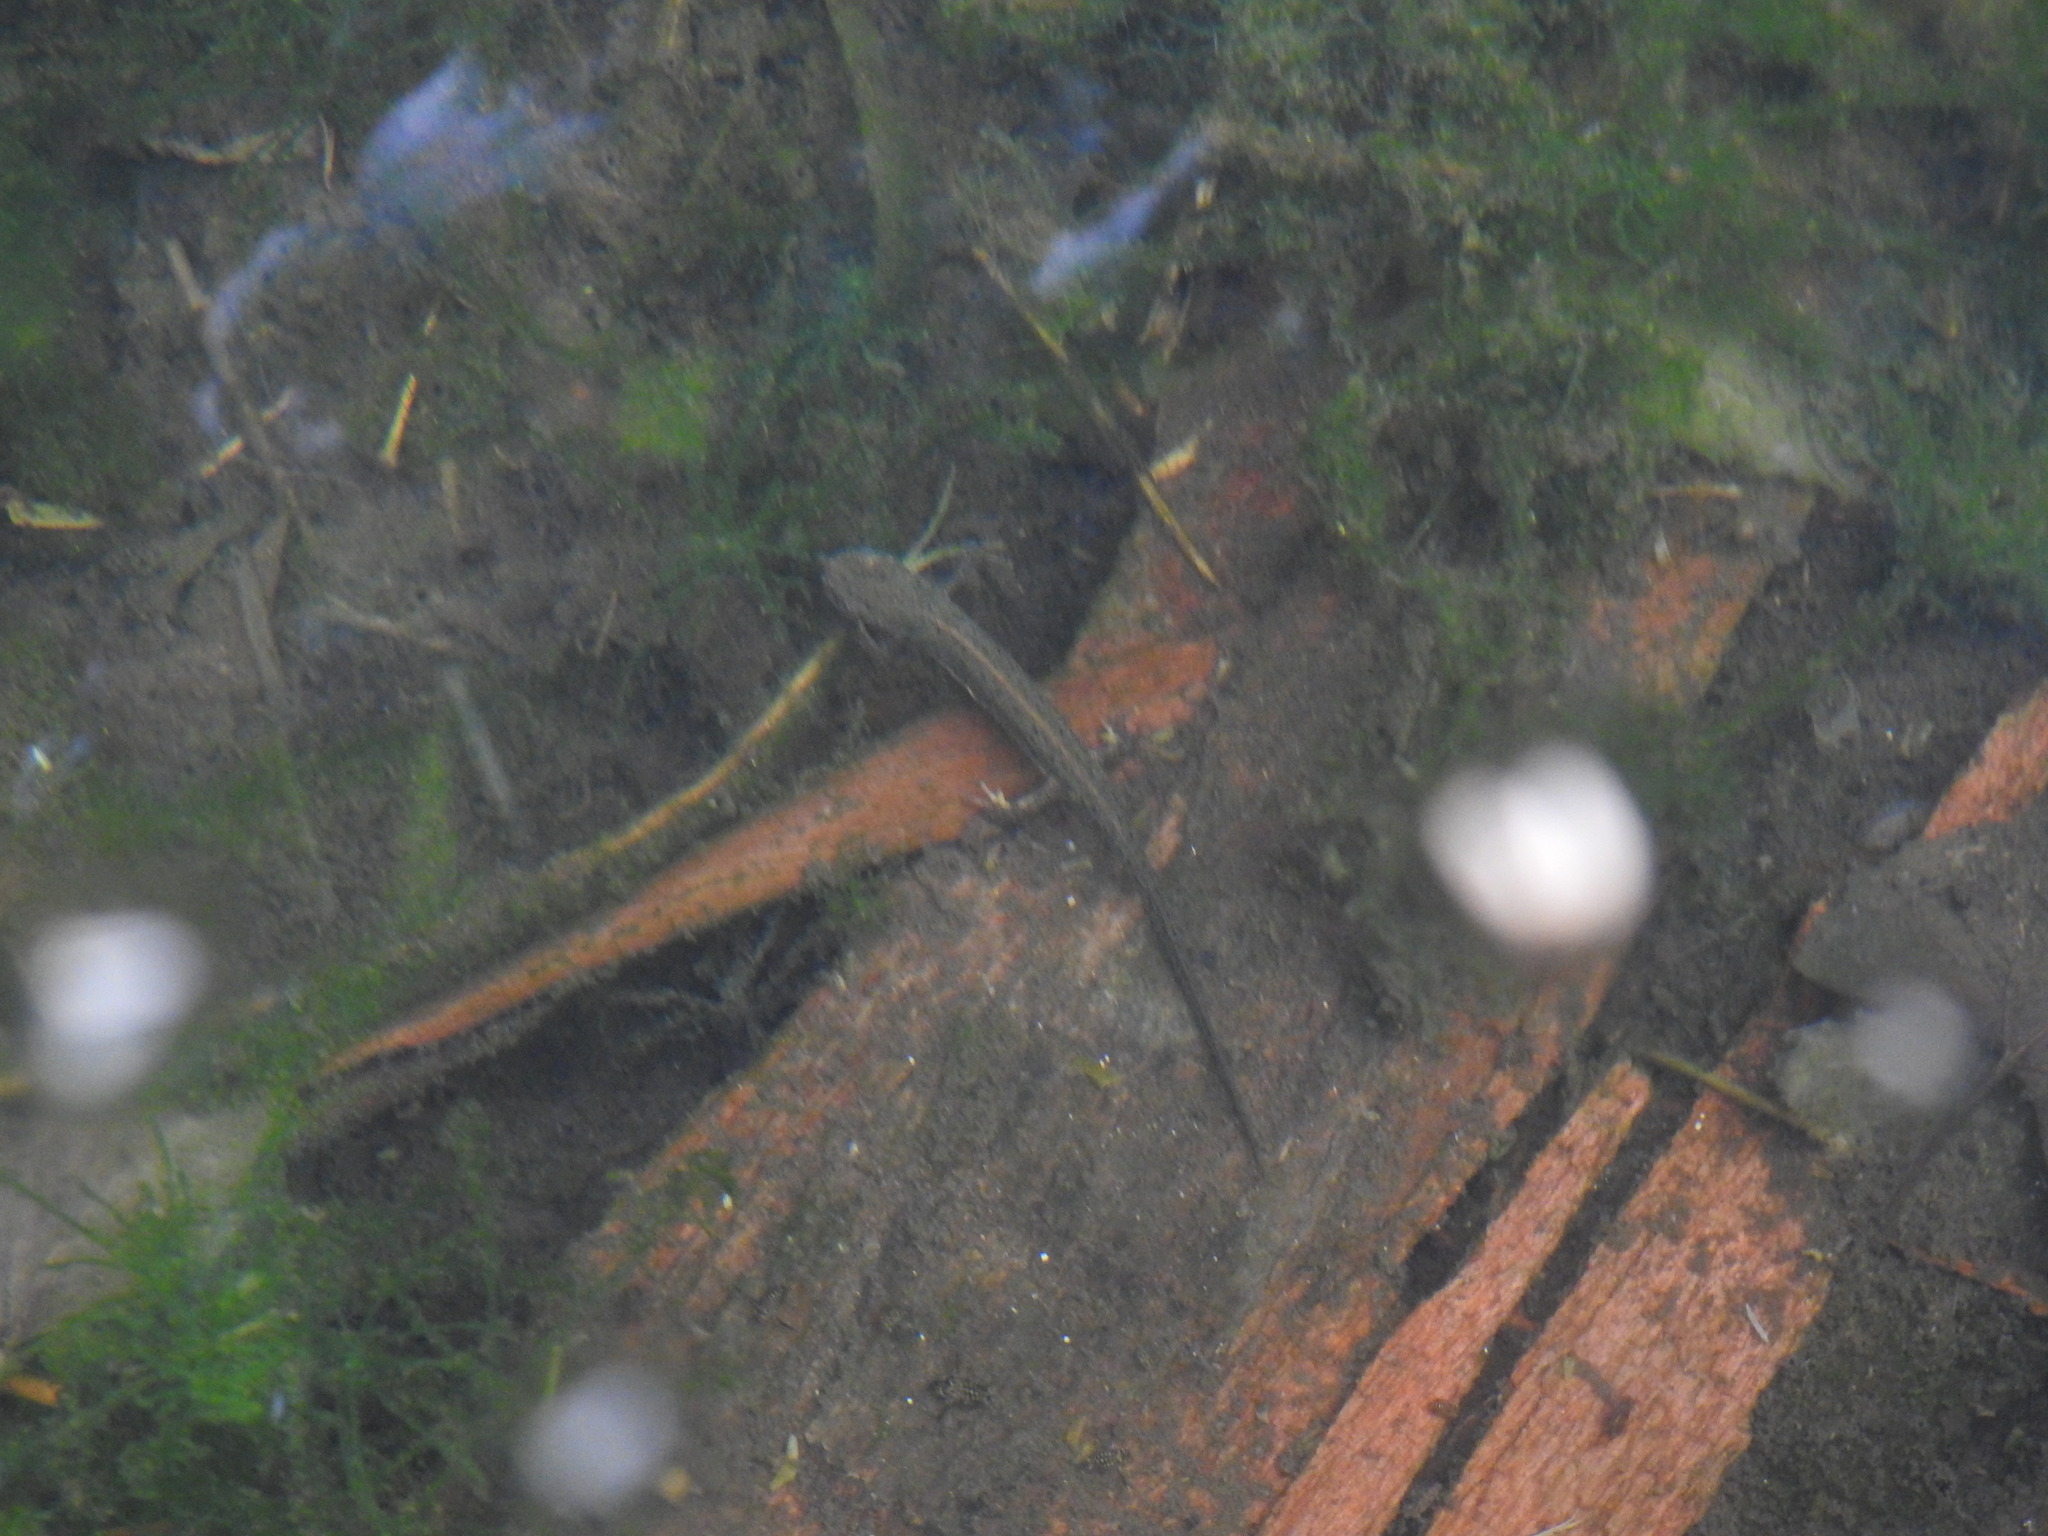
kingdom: Animalia
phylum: Chordata
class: Amphibia
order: Caudata
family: Salamandridae
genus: Lissotriton
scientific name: Lissotriton maltzani
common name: Portuguese smooth newt
